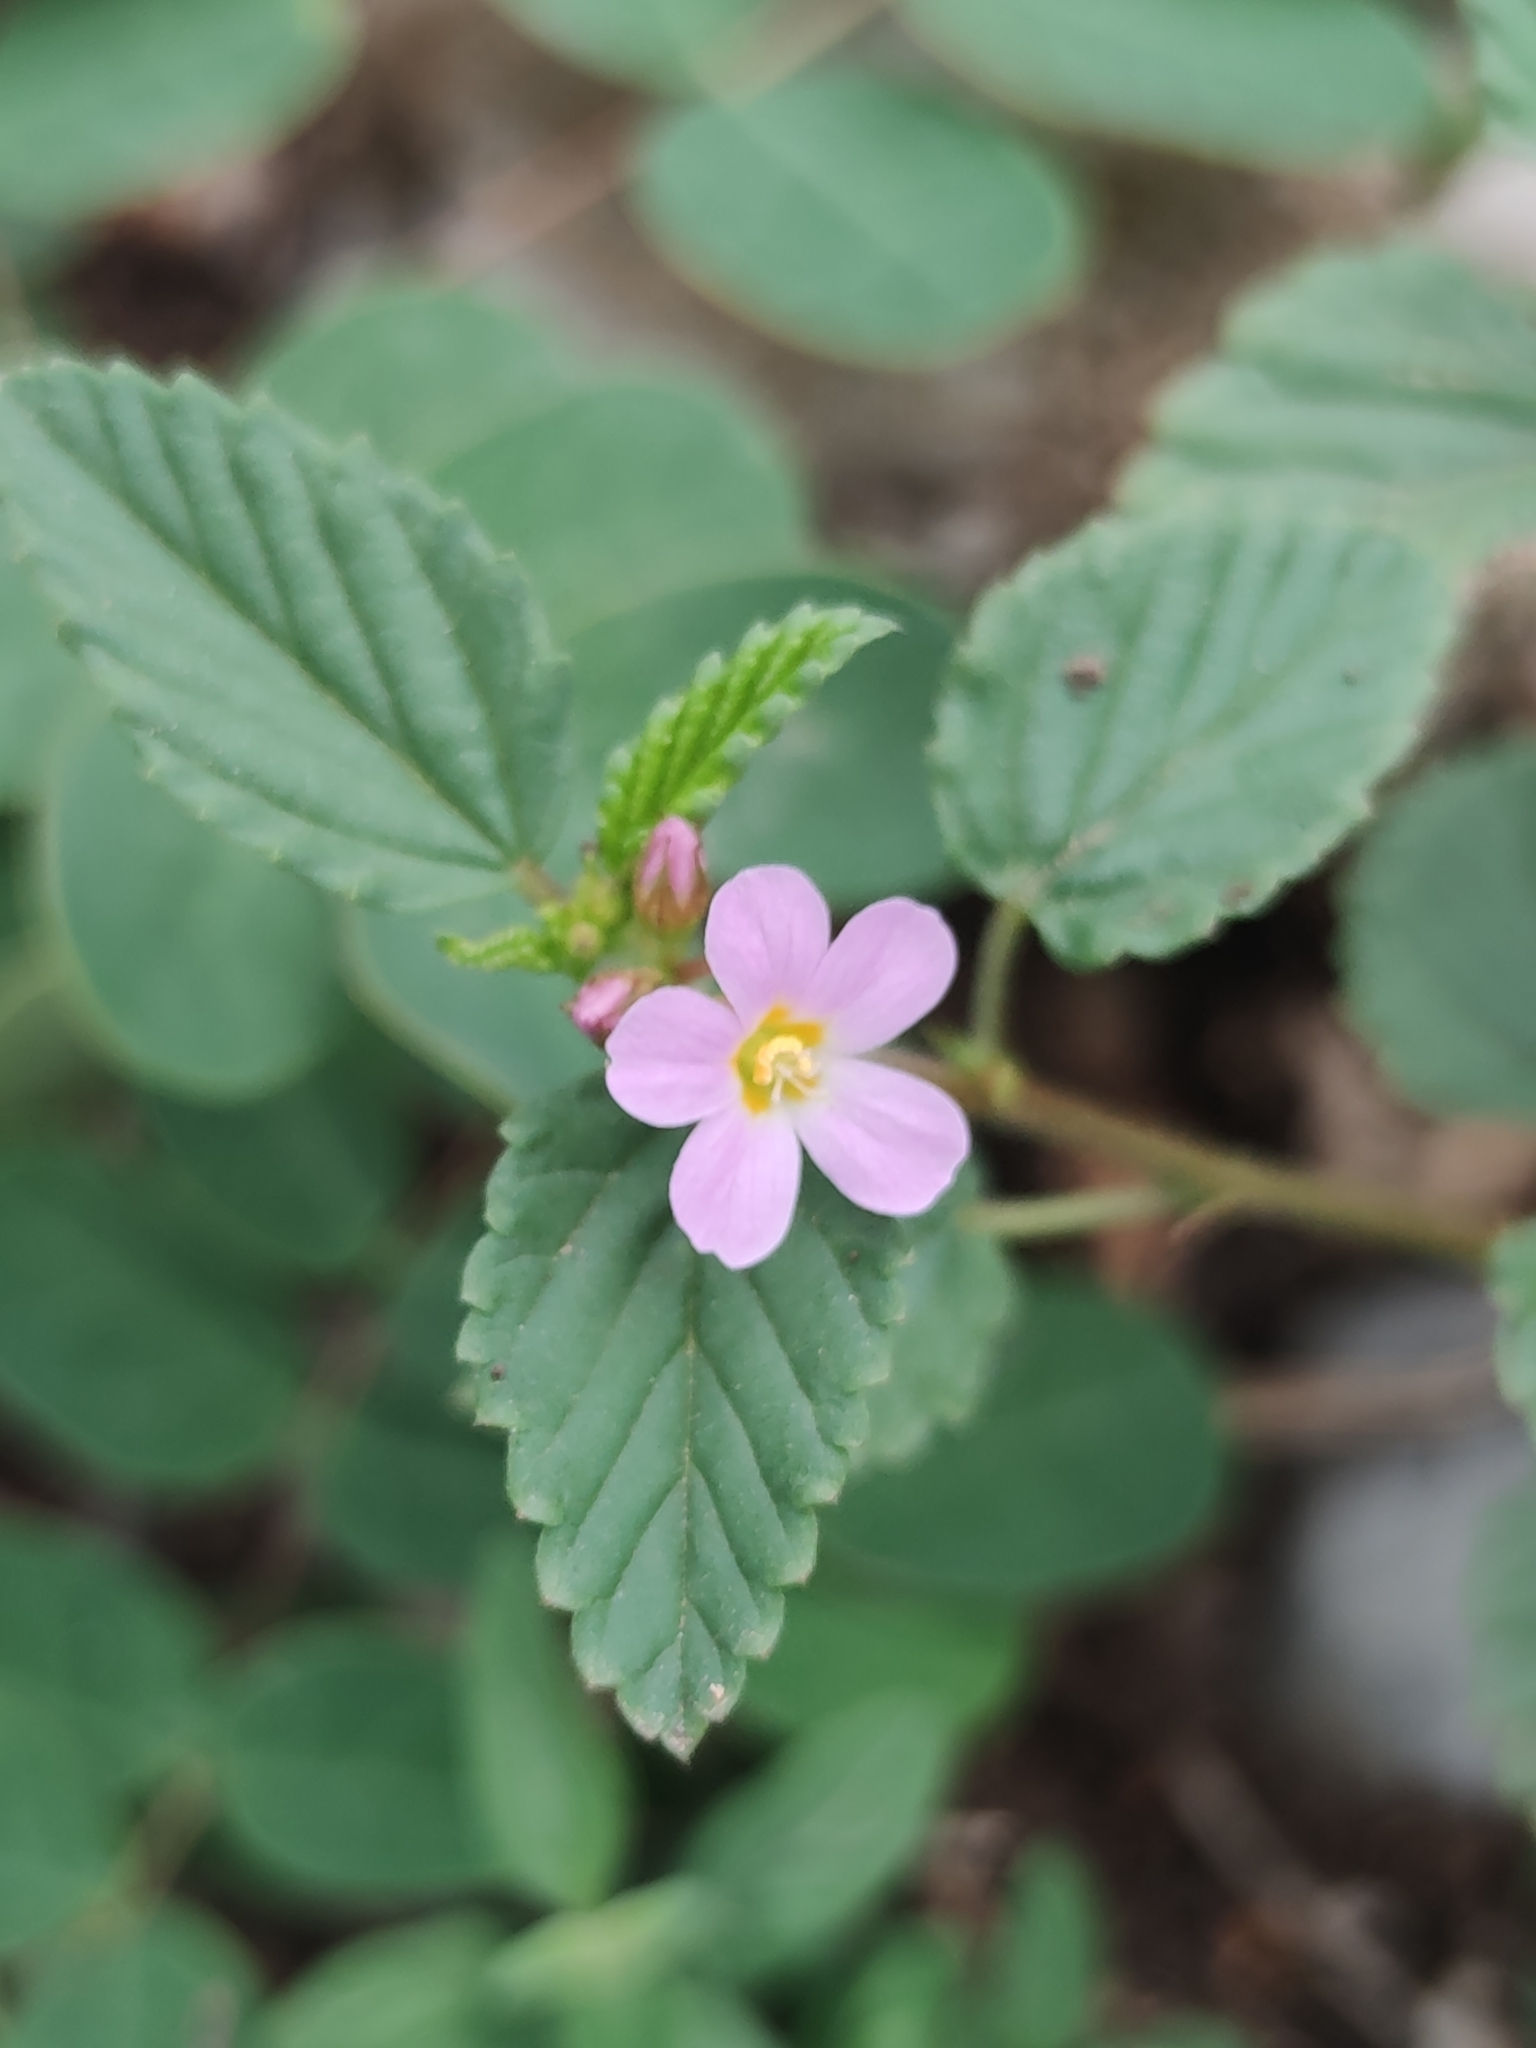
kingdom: Plantae
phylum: Tracheophyta
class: Magnoliopsida
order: Malvales
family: Malvaceae
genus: Melochia
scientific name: Melochia pyramidata
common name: Pyramidflower
